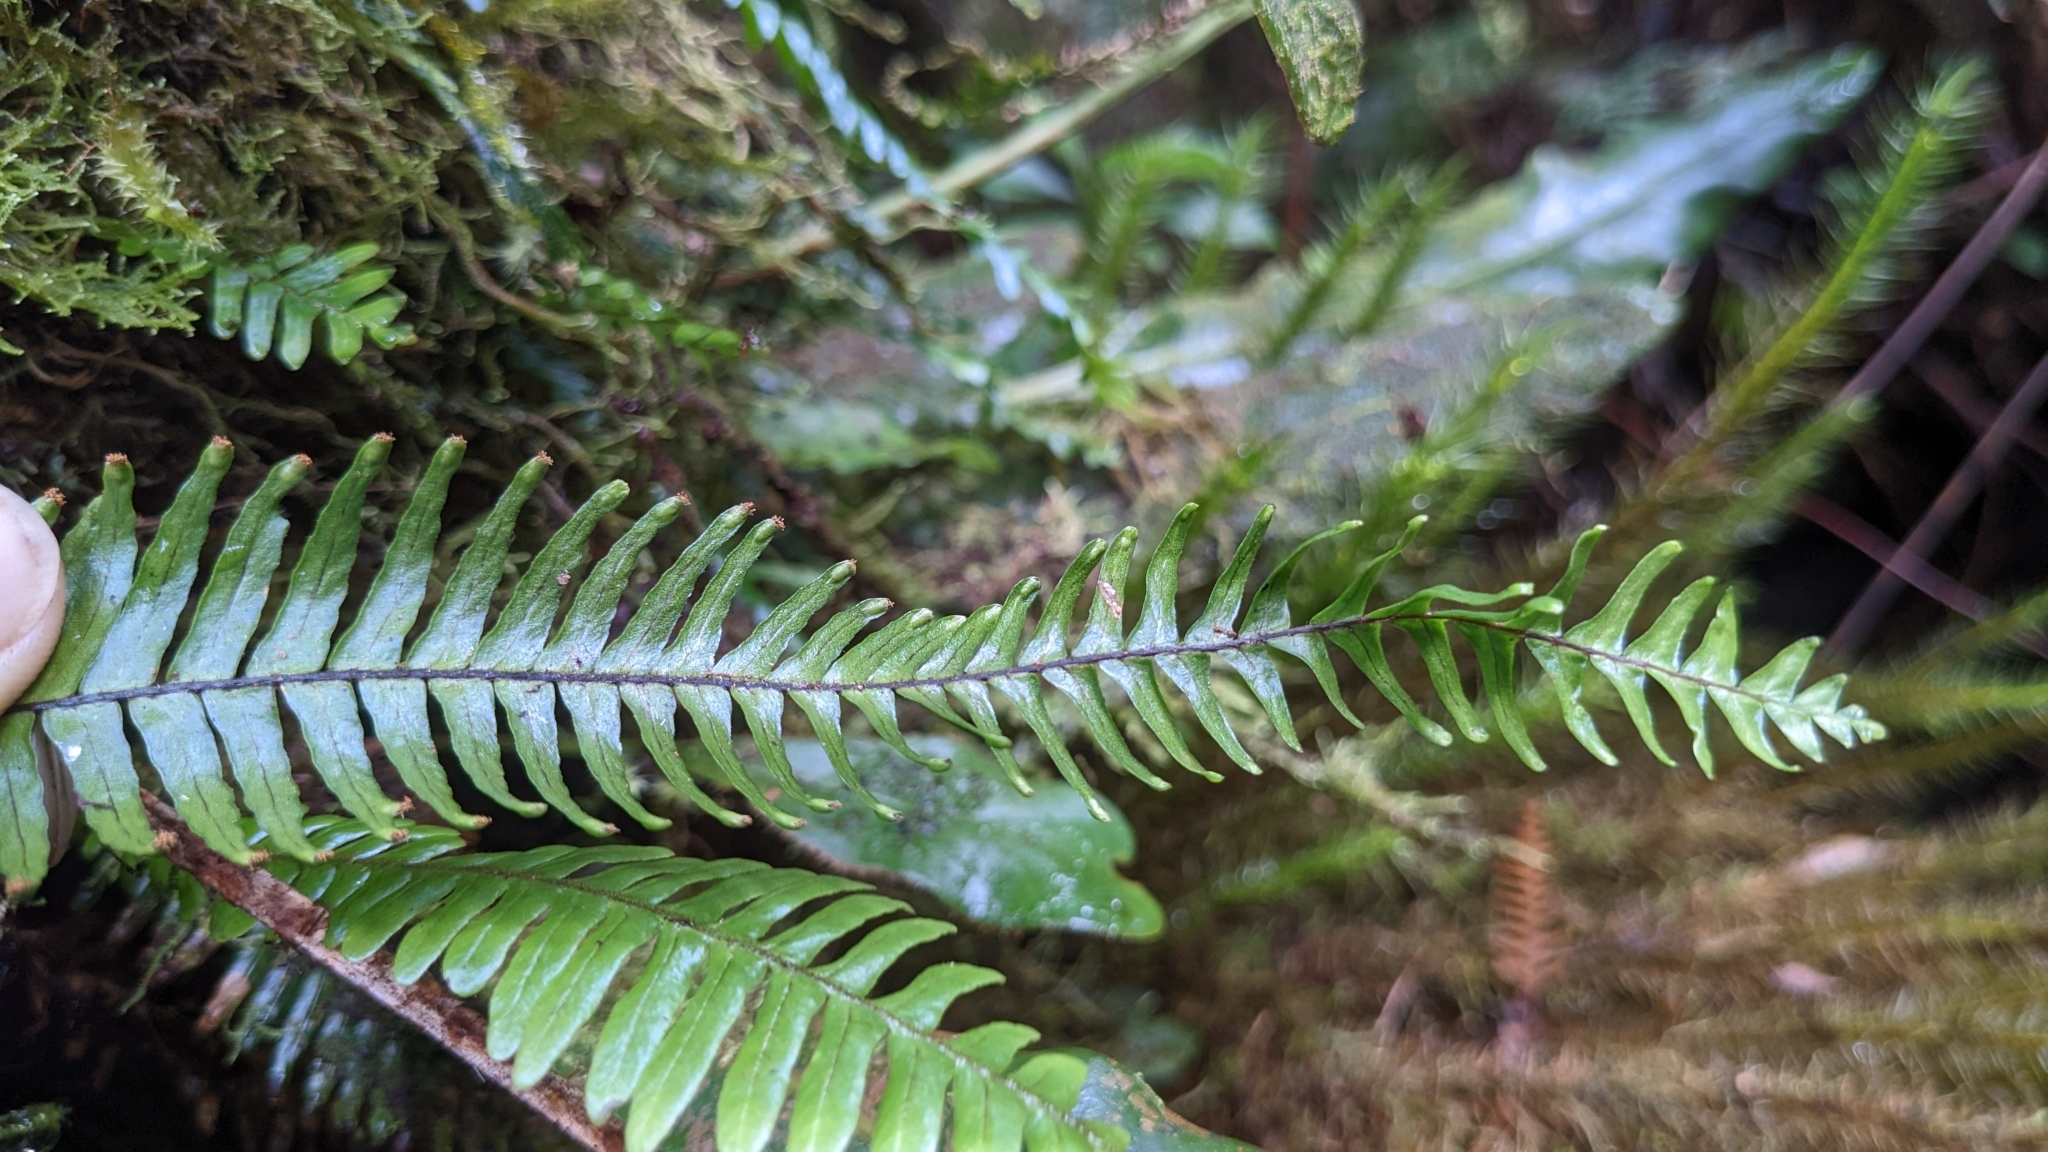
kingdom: Plantae
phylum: Tracheophyta
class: Polypodiopsida
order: Polypodiales
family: Polypodiaceae
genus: Prosaptia
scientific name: Prosaptia contigua
